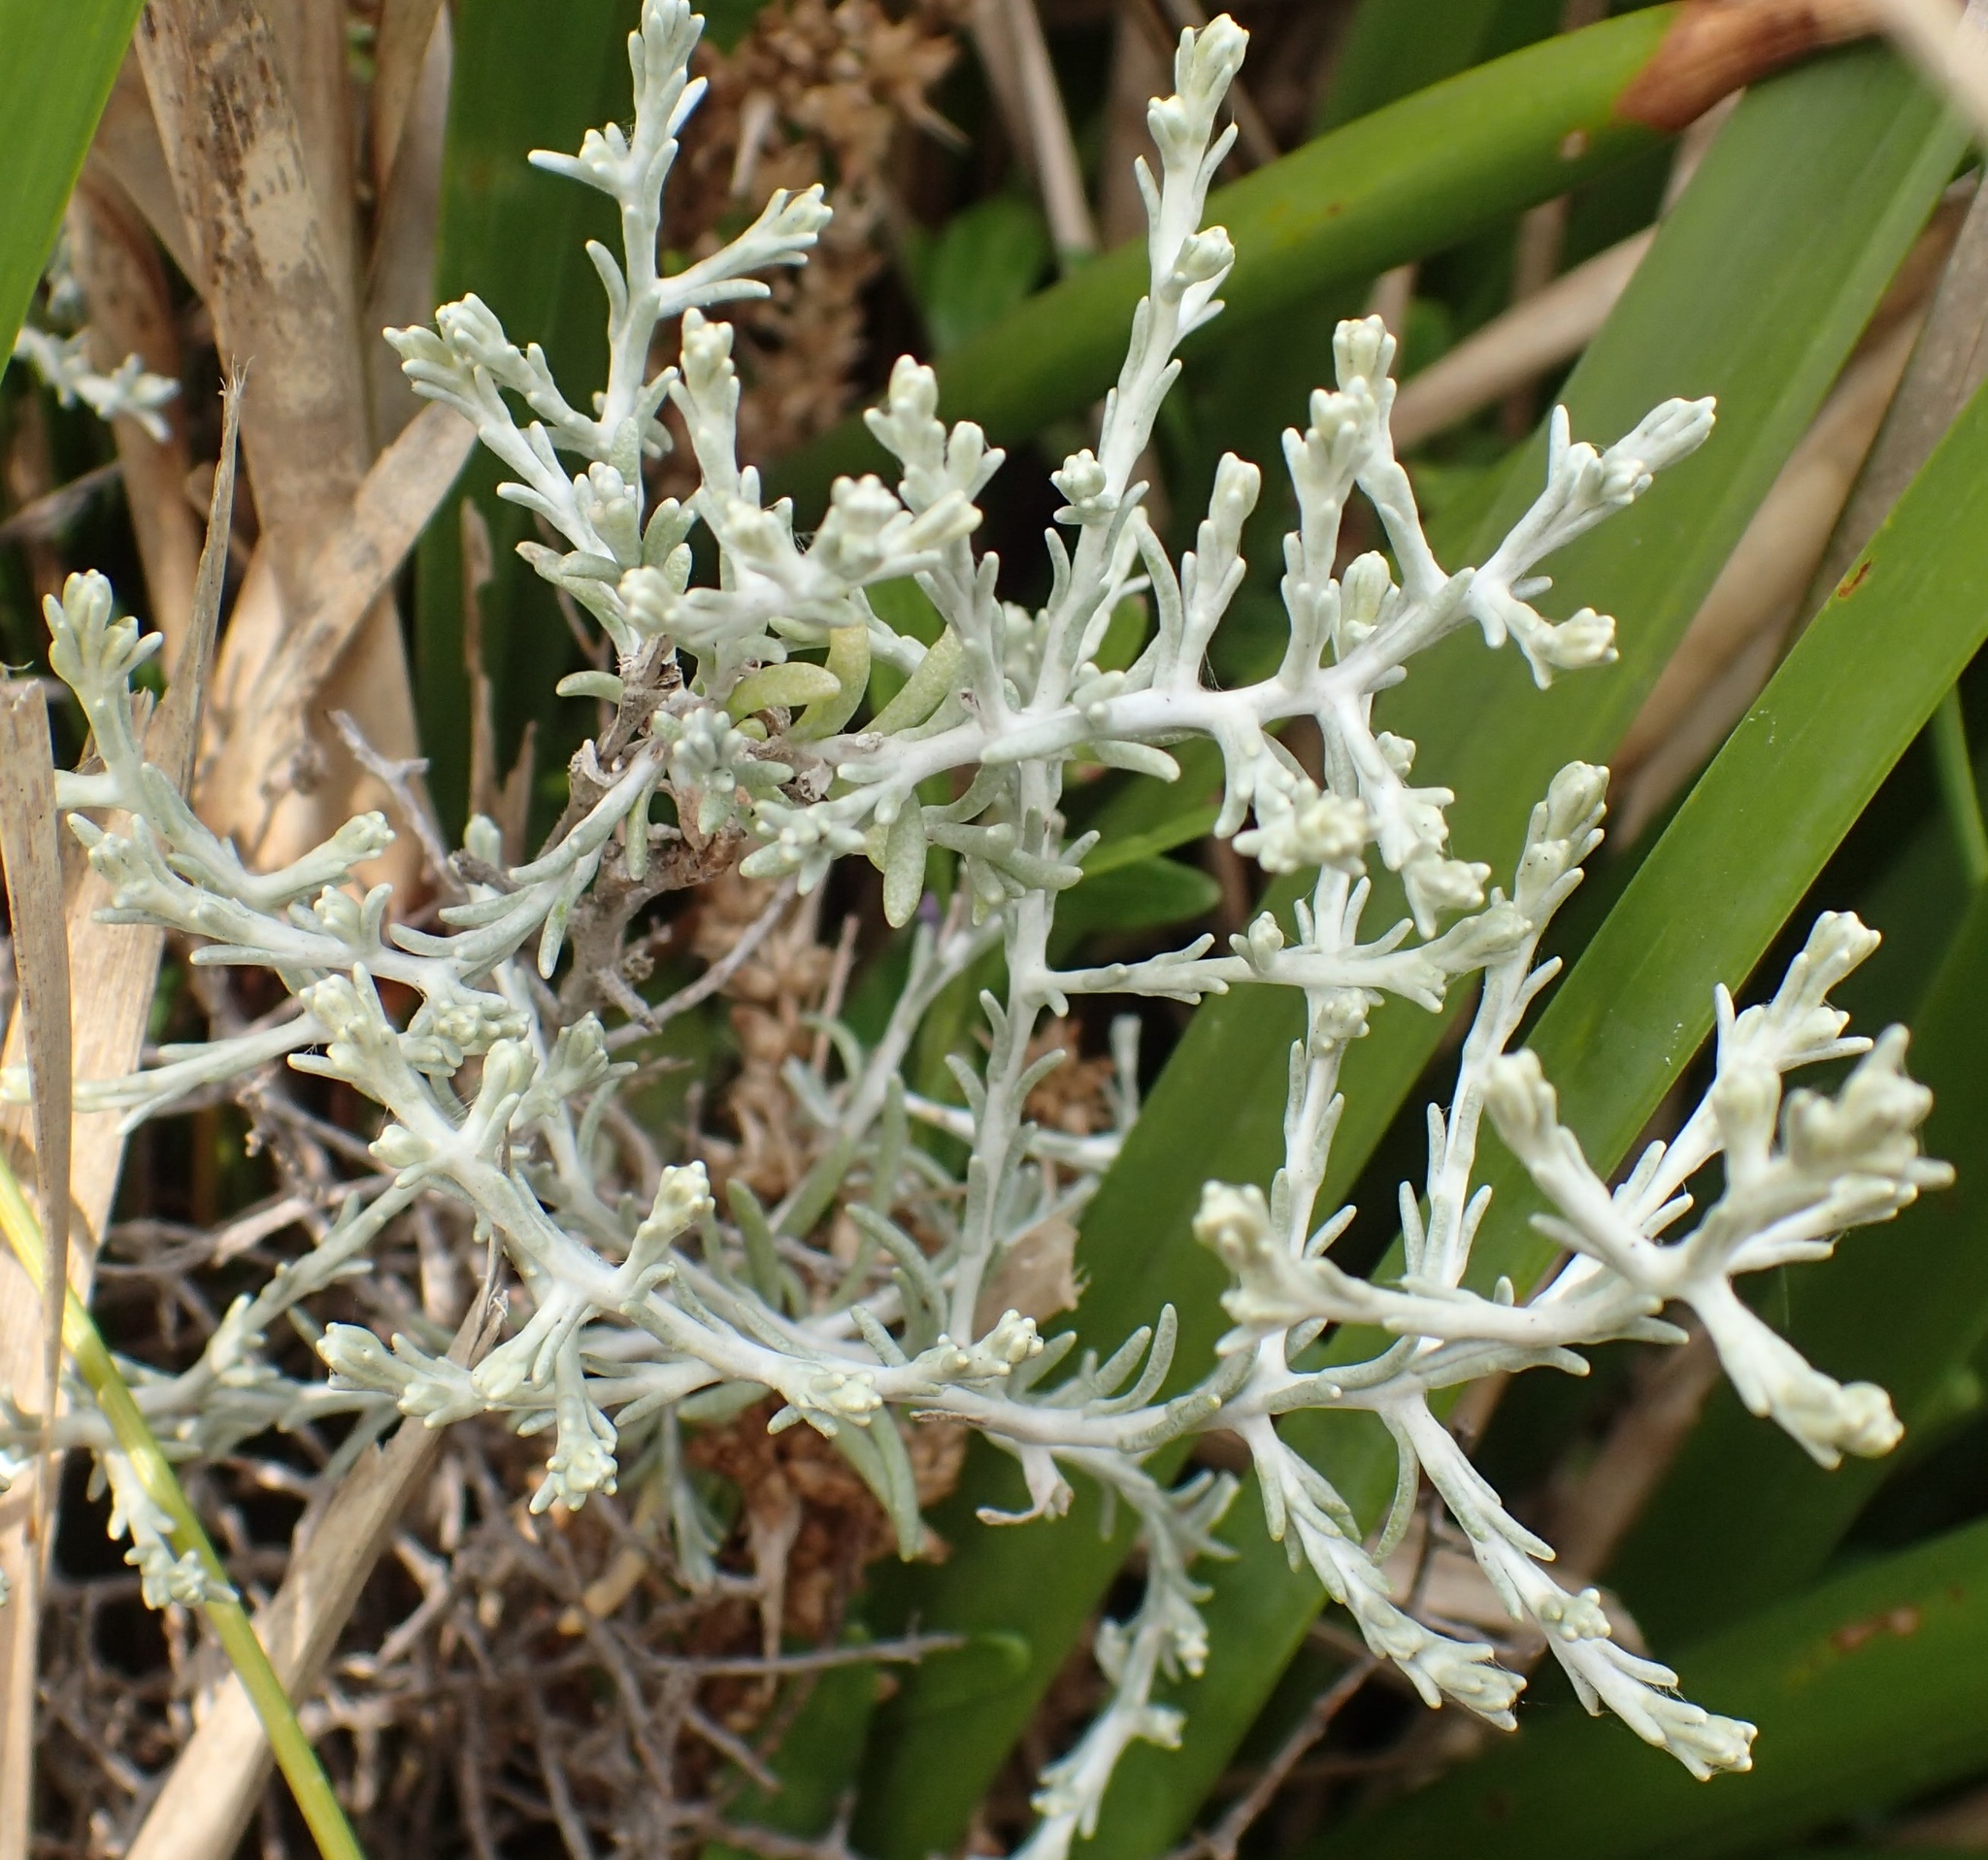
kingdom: Plantae
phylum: Tracheophyta
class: Magnoliopsida
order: Asterales
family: Asteraceae
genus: Calocephalus
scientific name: Calocephalus brownii
